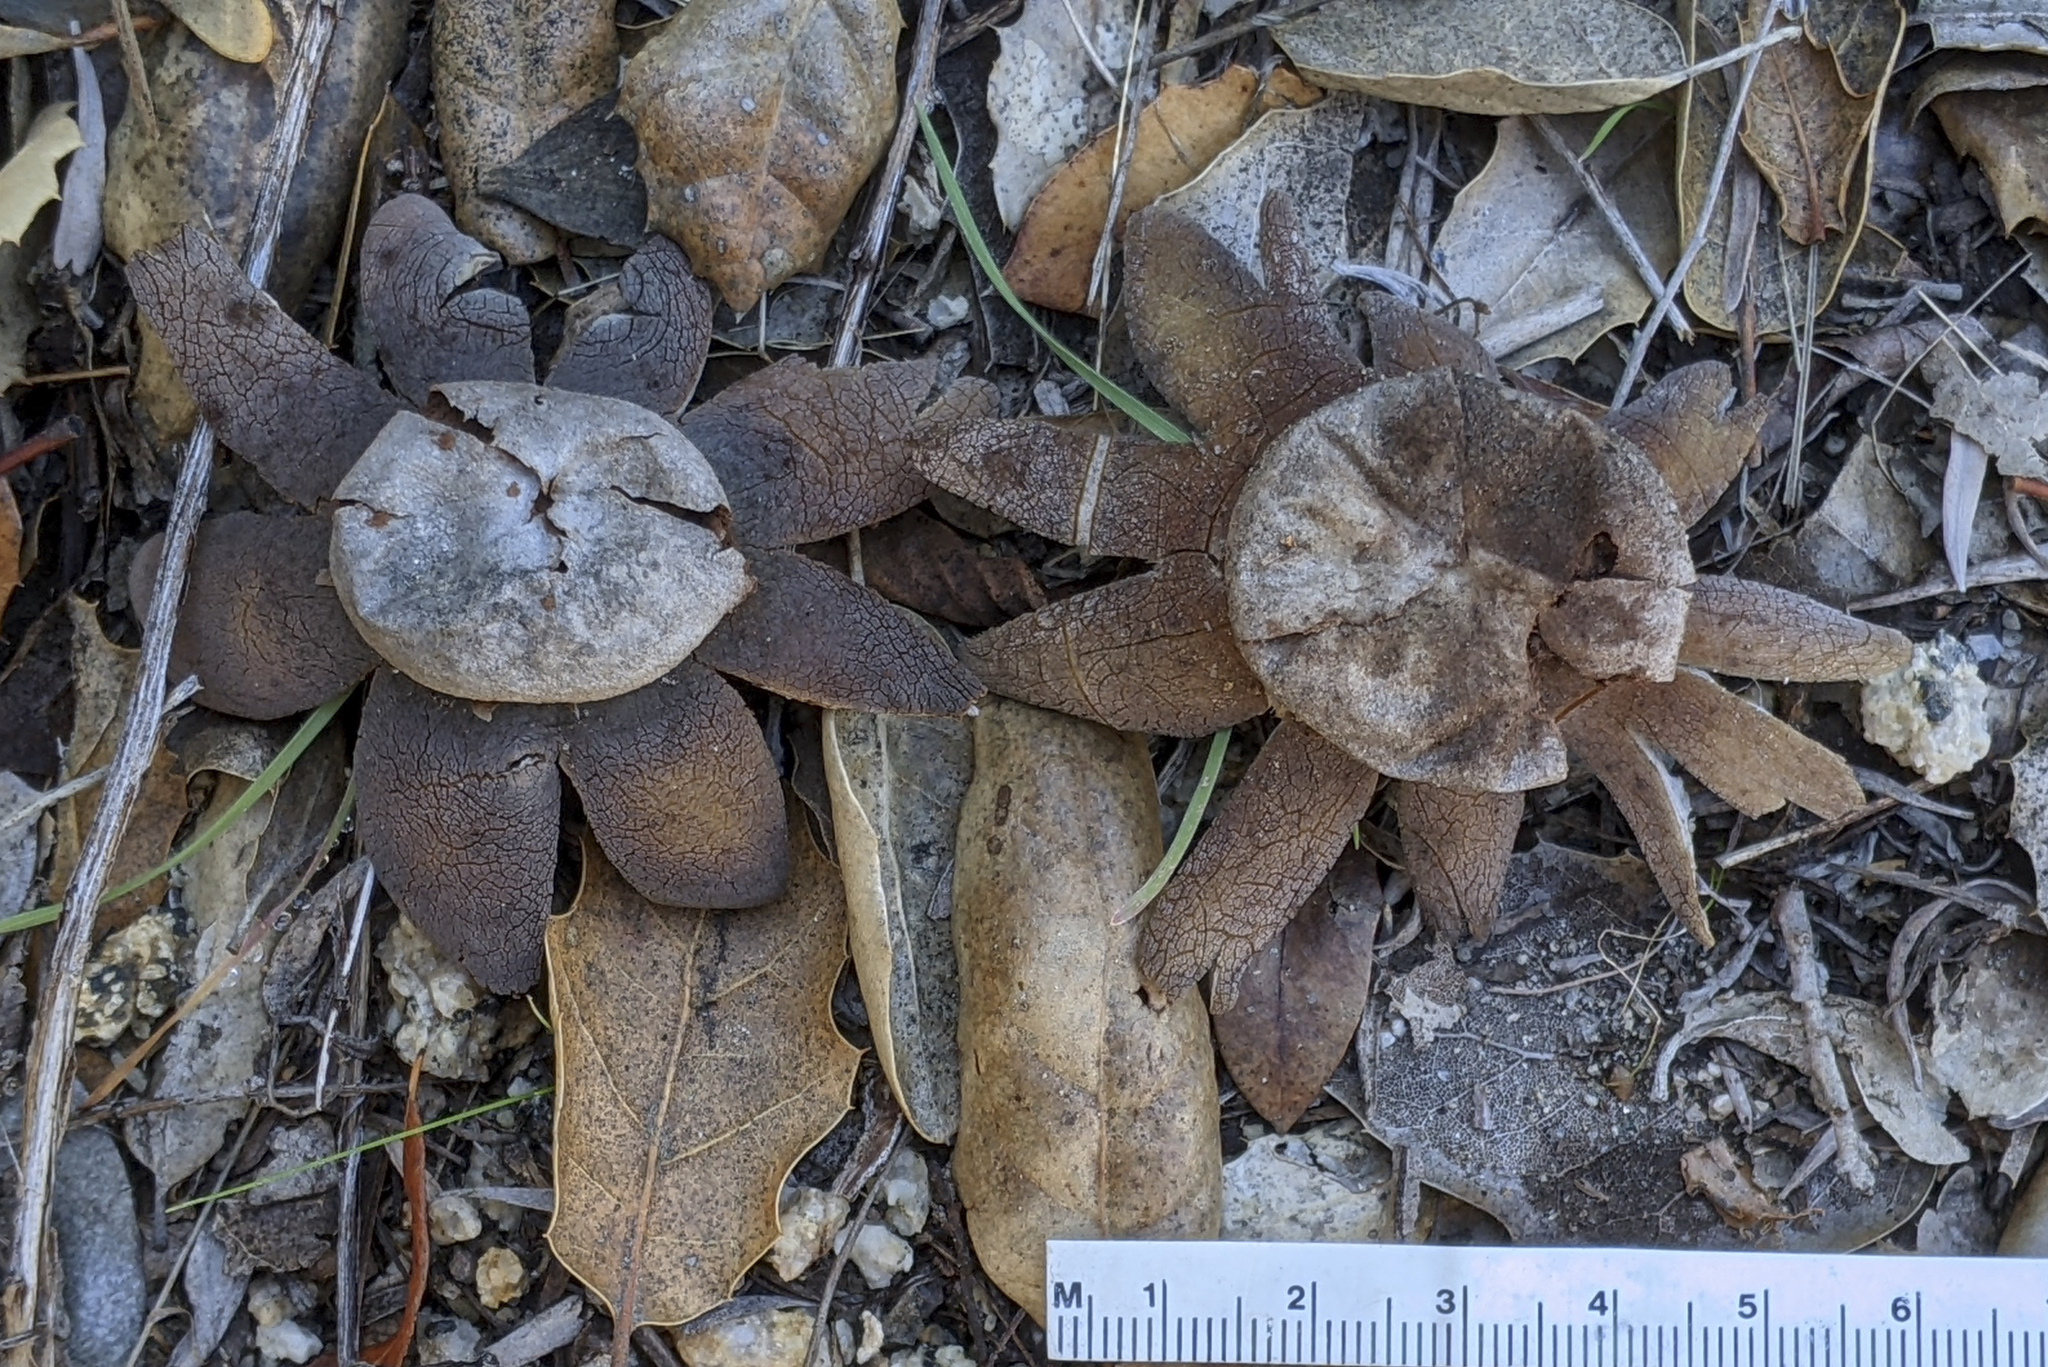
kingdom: Fungi
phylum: Basidiomycota
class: Agaricomycetes
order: Boletales
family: Diplocystidiaceae
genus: Astraeus
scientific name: Astraeus hygrometricus
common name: Barometer earthstar
